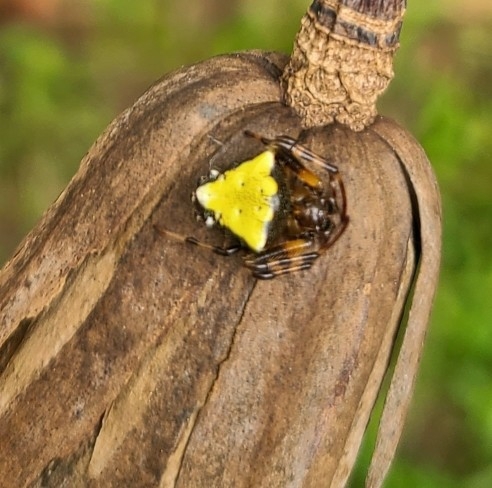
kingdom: Animalia
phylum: Arthropoda
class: Arachnida
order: Araneae
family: Araneidae
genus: Verrucosa
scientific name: Verrucosa arenata
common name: Orb weavers
